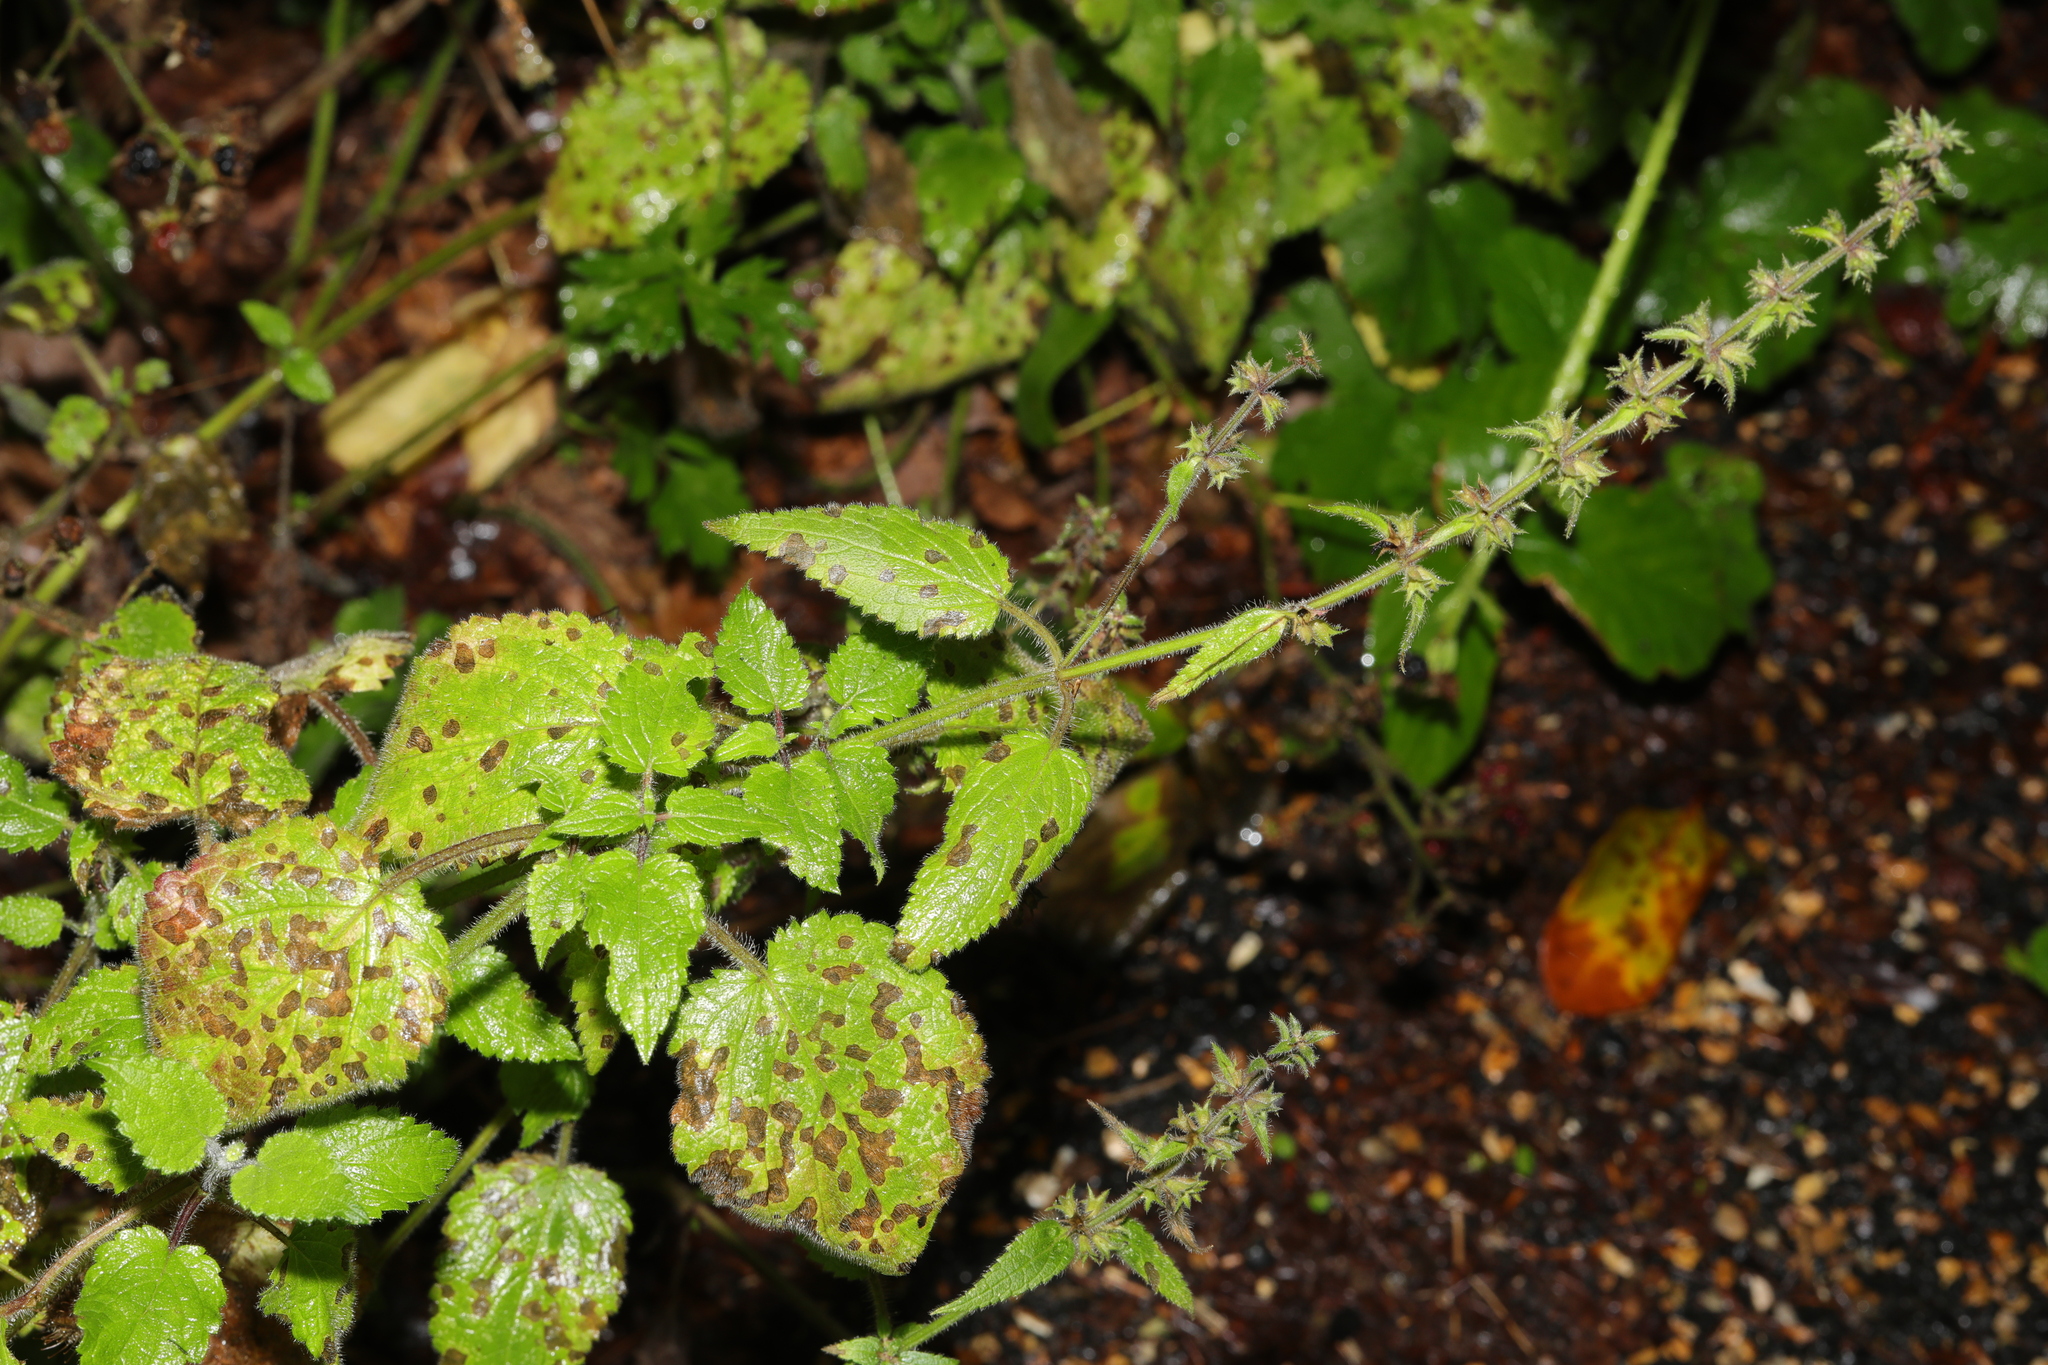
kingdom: Plantae
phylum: Tracheophyta
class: Magnoliopsida
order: Lamiales
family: Lamiaceae
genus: Stachys
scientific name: Stachys sylvatica
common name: Hedge woundwort
